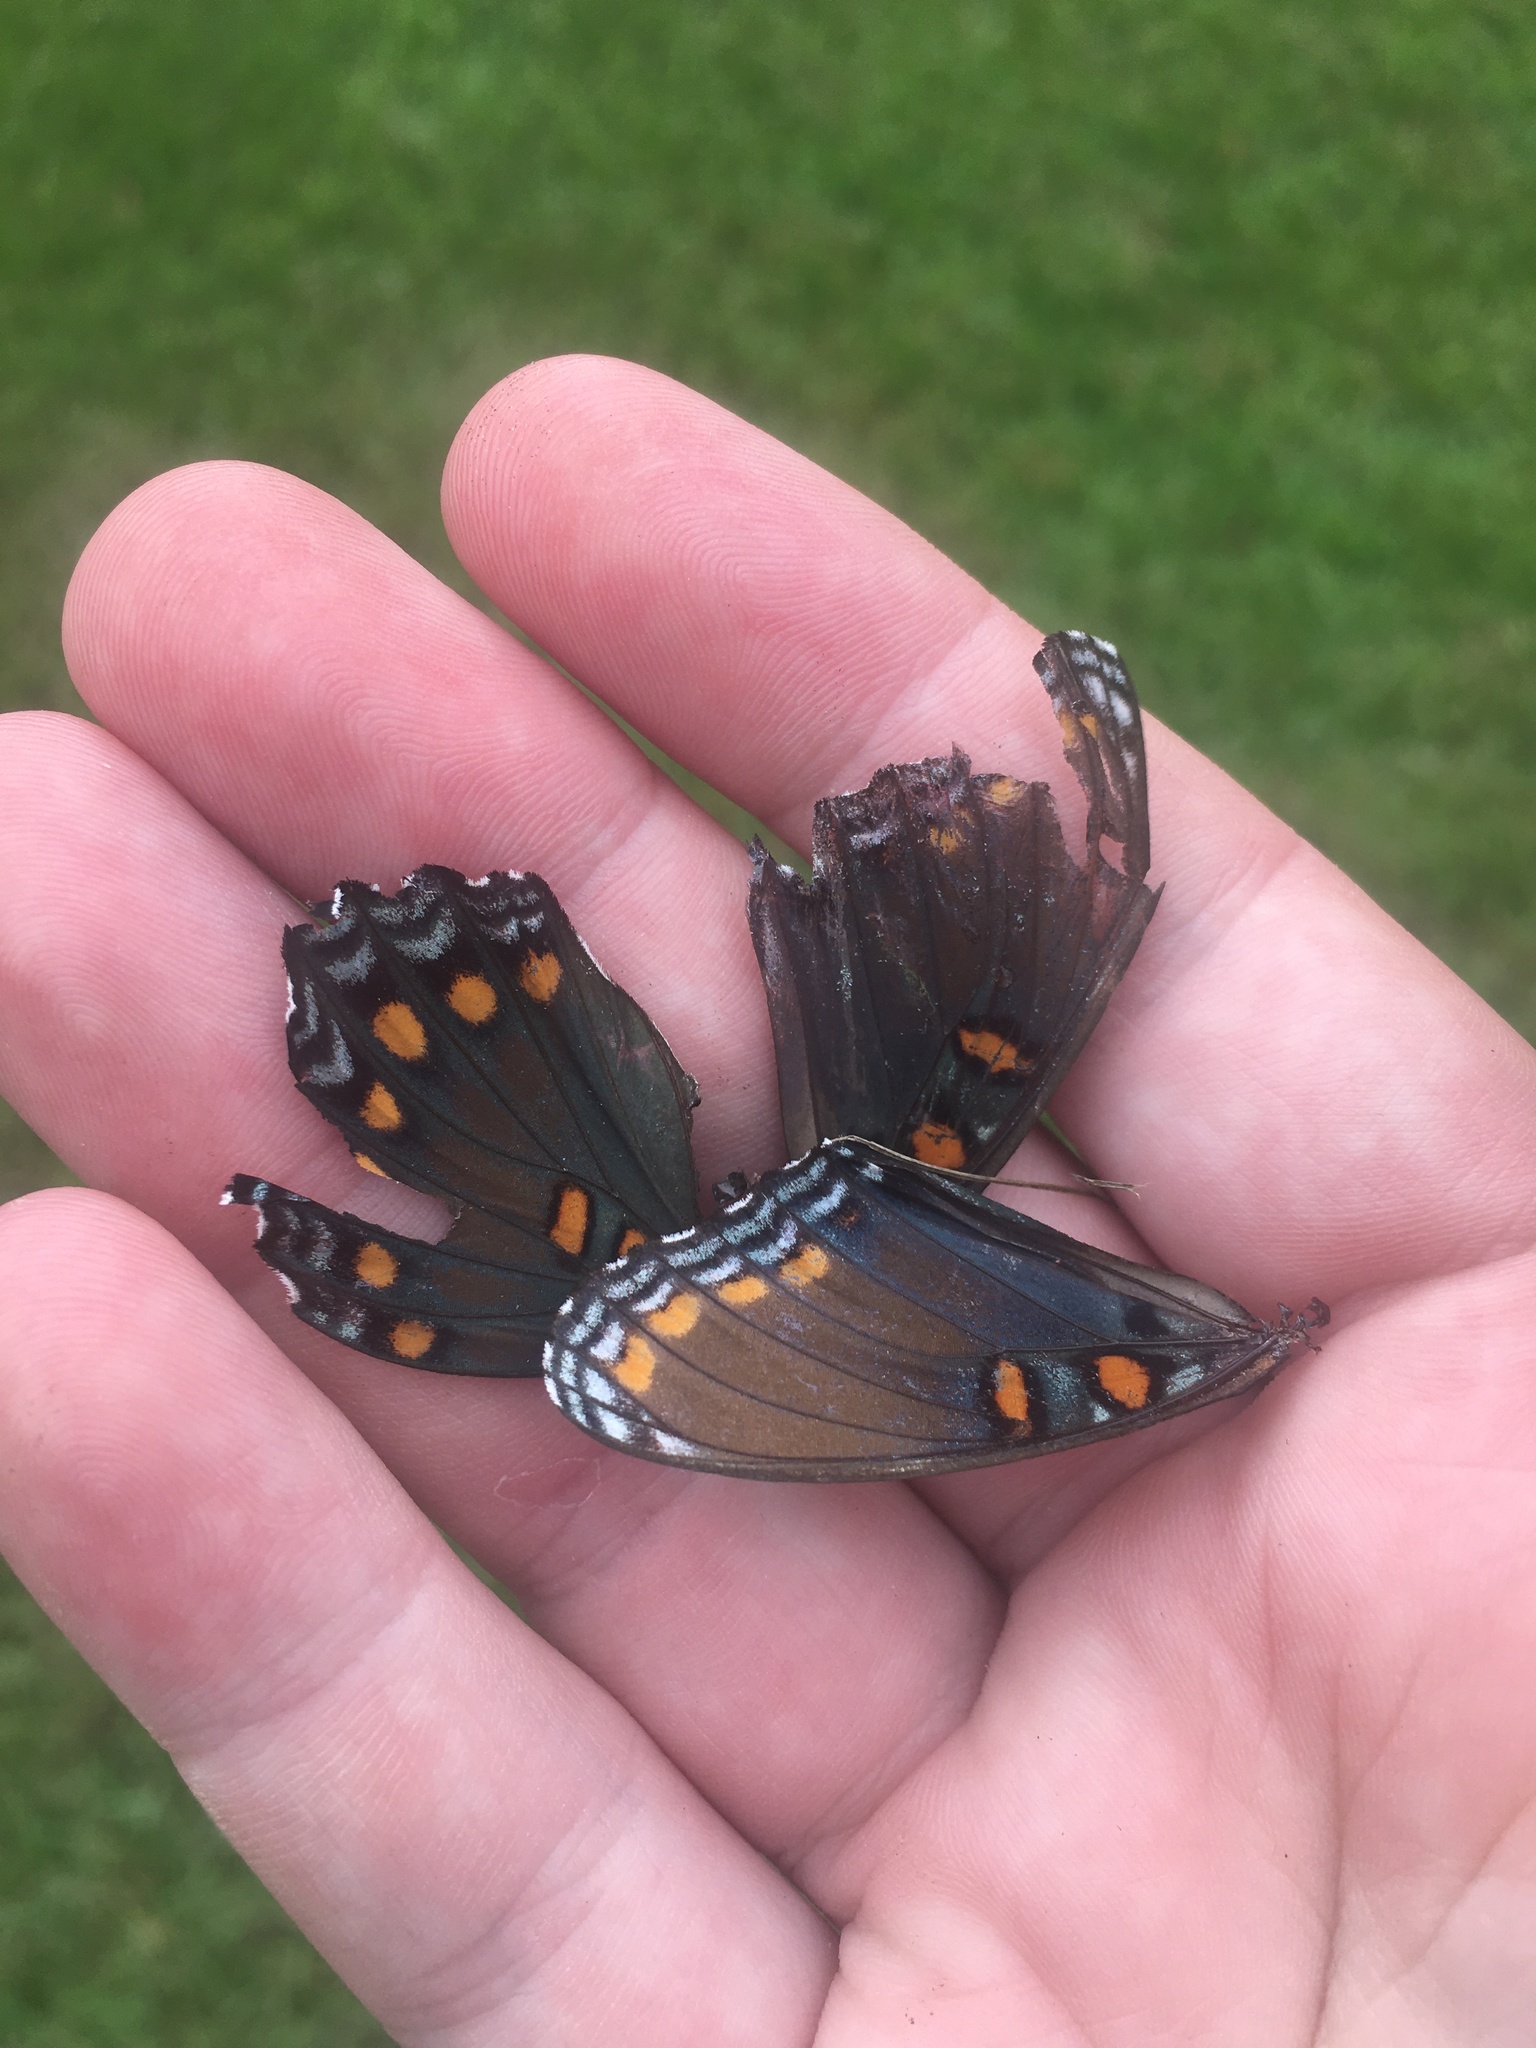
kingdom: Animalia
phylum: Arthropoda
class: Insecta
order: Lepidoptera
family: Nymphalidae
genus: Limenitis
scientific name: Limenitis arthemis
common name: Red-spotted admiral
